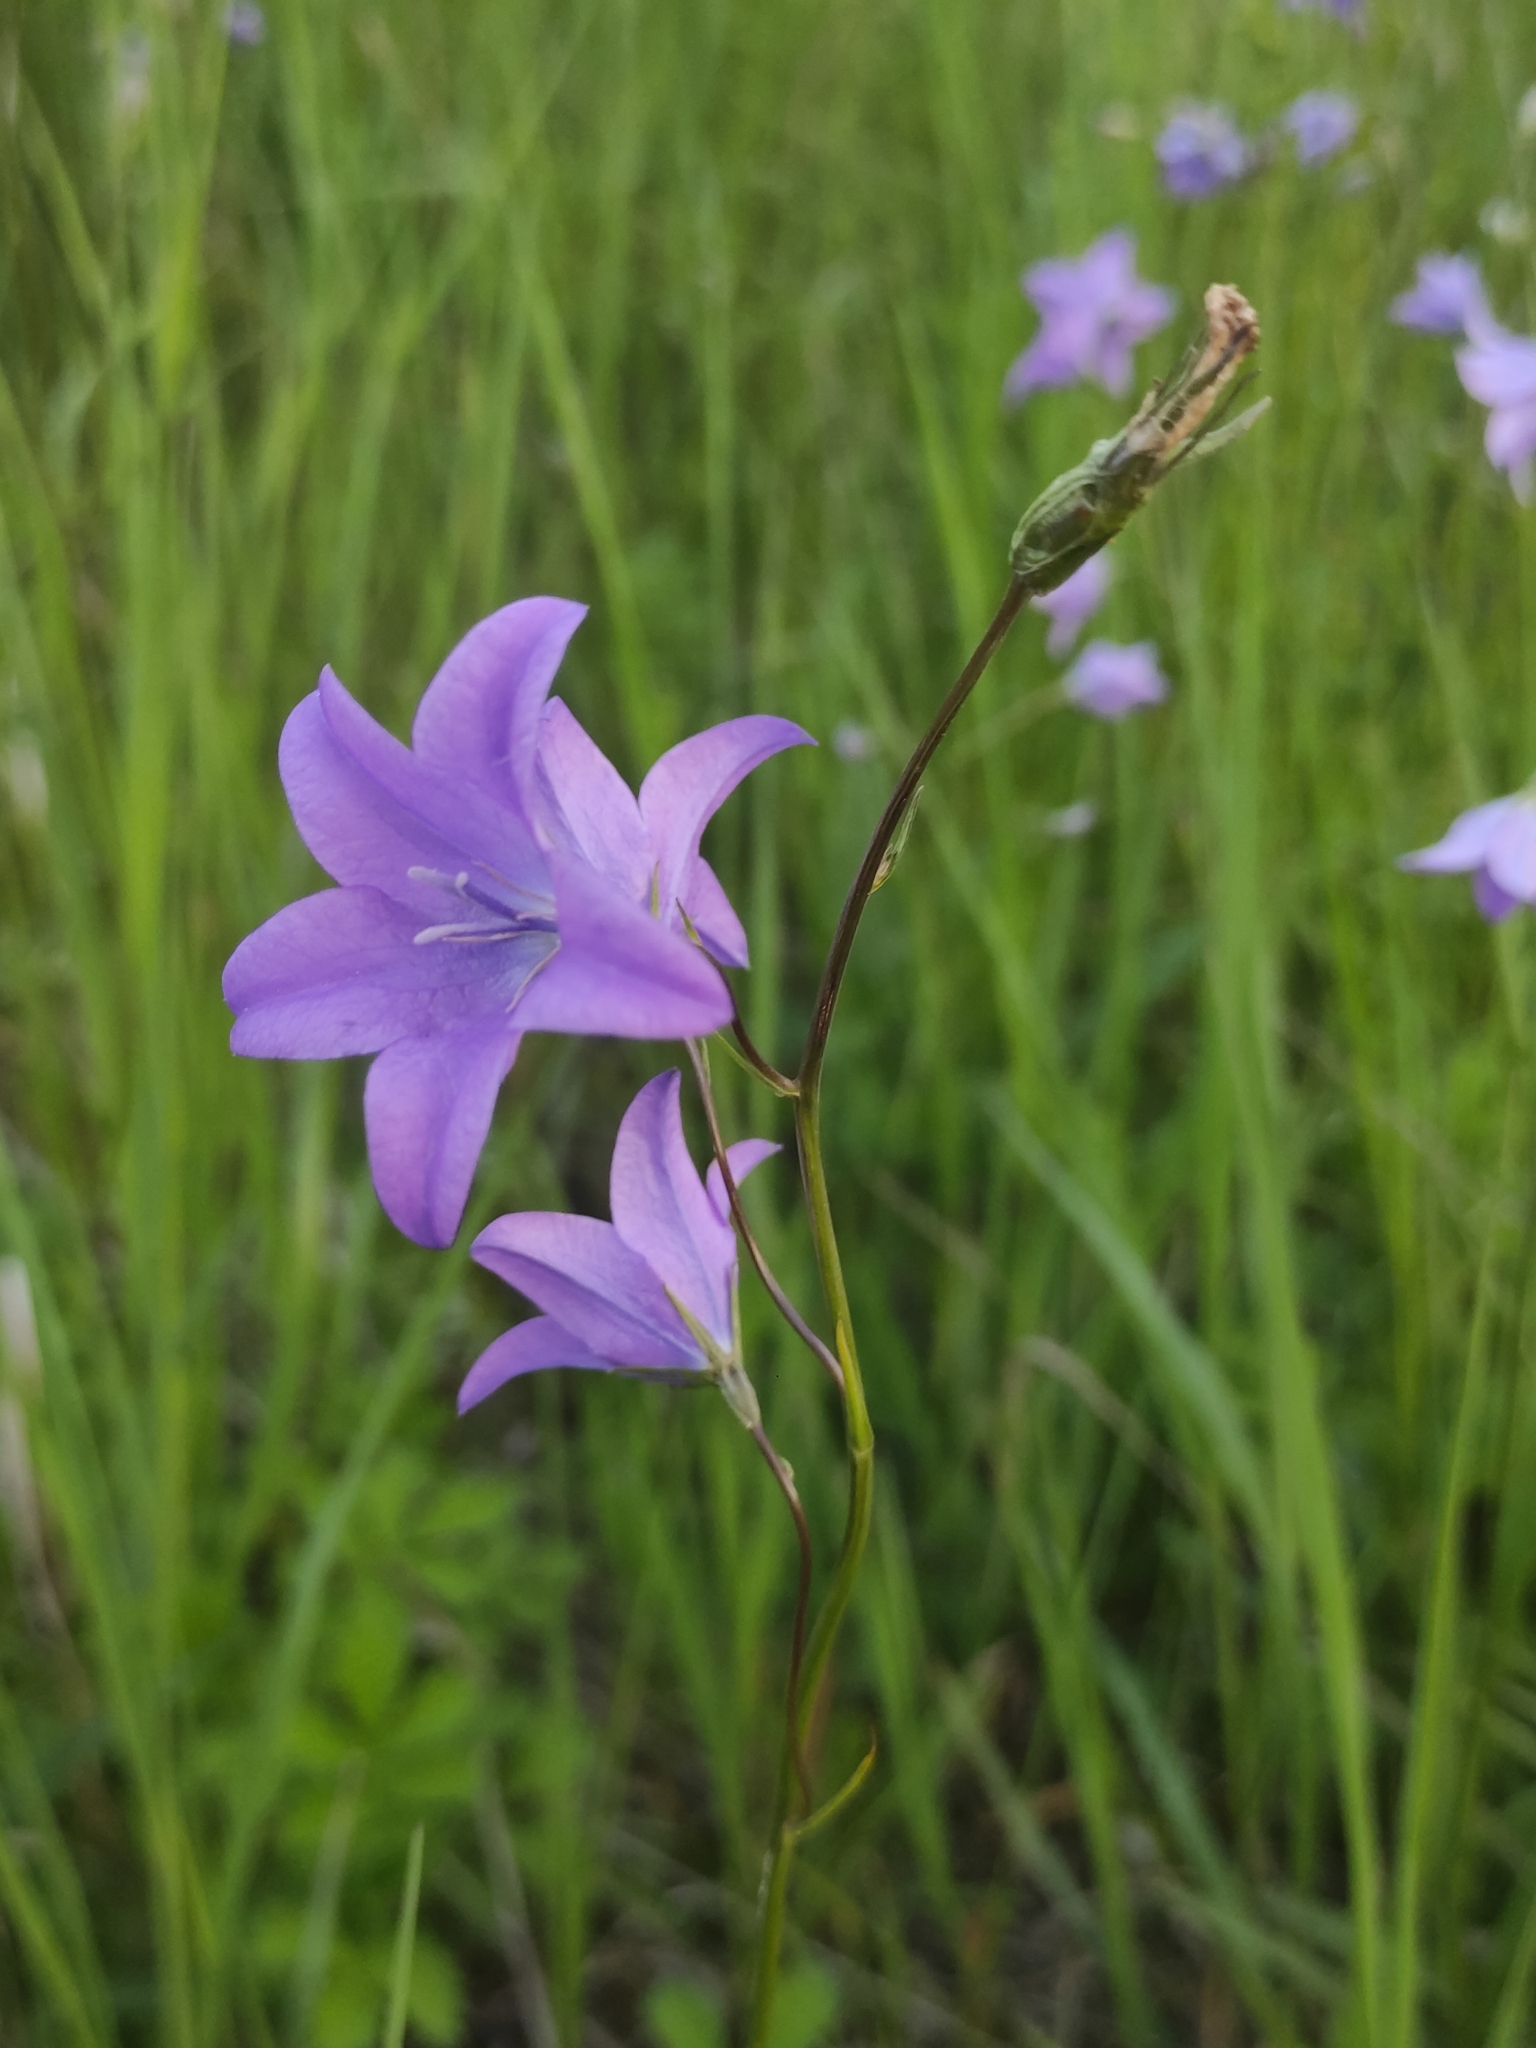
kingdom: Plantae
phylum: Tracheophyta
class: Magnoliopsida
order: Asterales
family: Campanulaceae
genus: Campanula
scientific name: Campanula patula
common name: Spreading bellflower
